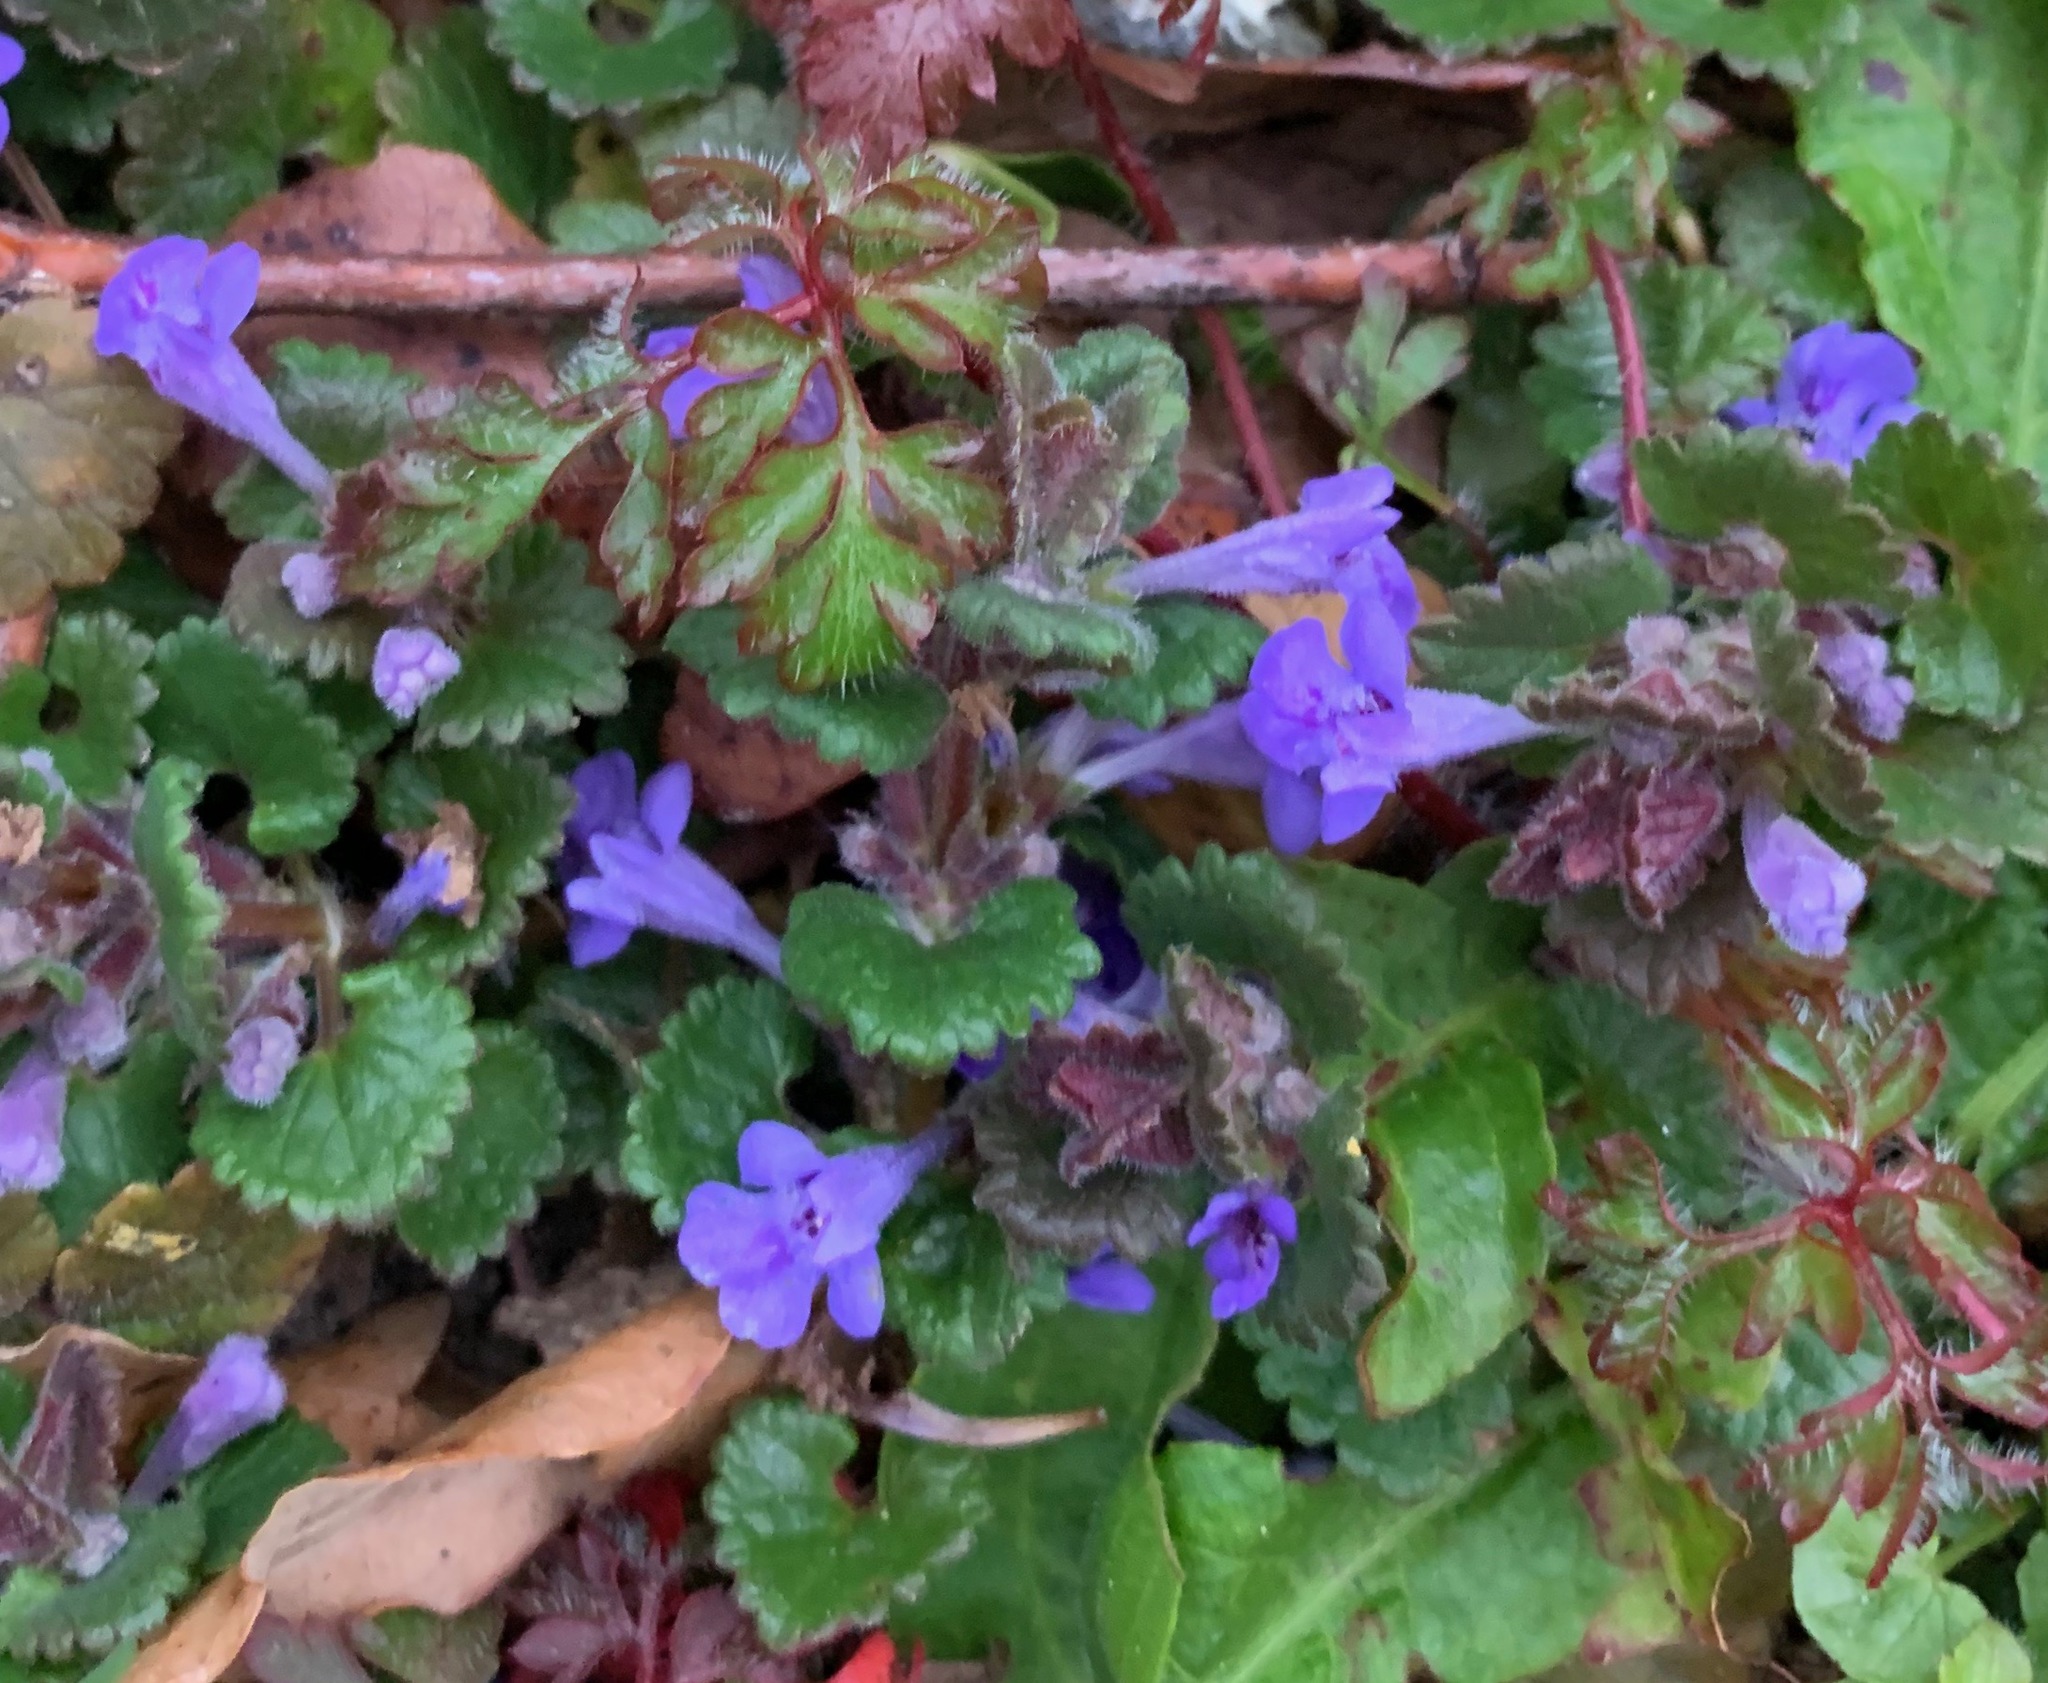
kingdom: Plantae
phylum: Tracheophyta
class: Magnoliopsida
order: Lamiales
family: Lamiaceae
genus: Glechoma
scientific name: Glechoma hederacea
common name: Ground ivy
